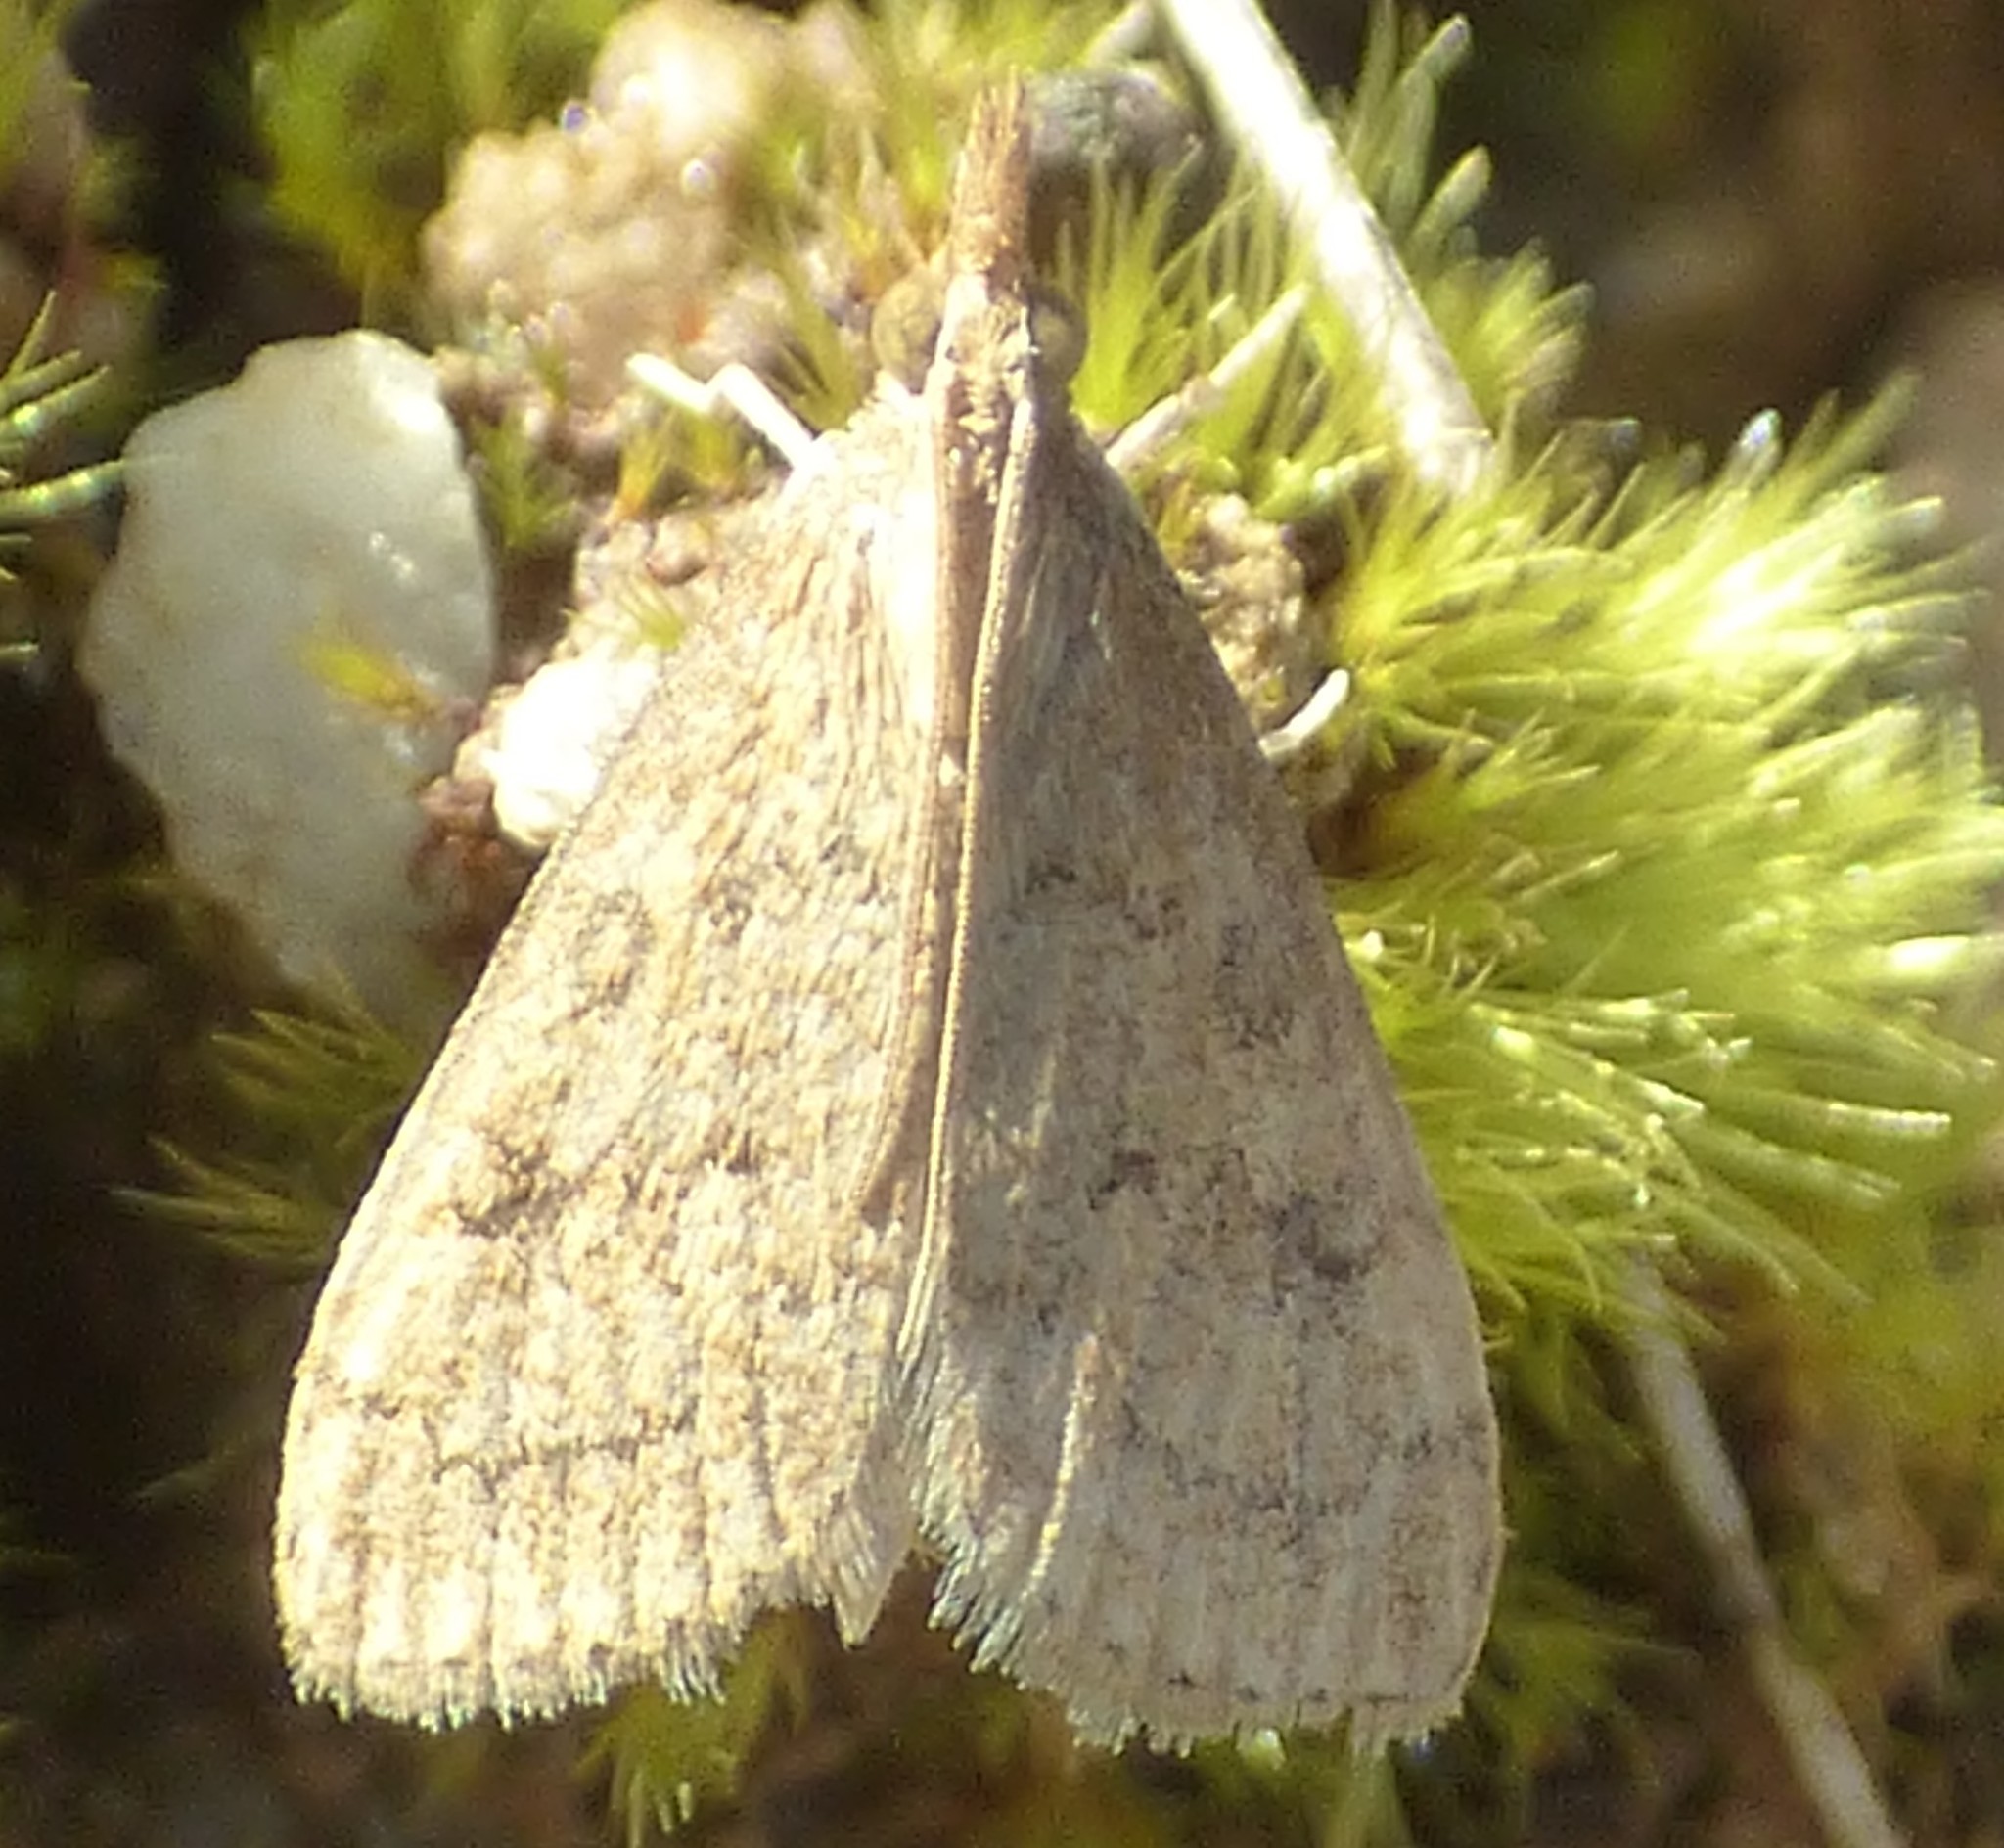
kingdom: Animalia
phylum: Arthropoda
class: Insecta
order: Lepidoptera
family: Crambidae
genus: Udea
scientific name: Udea rubigalis
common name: Celery leaftier moth
